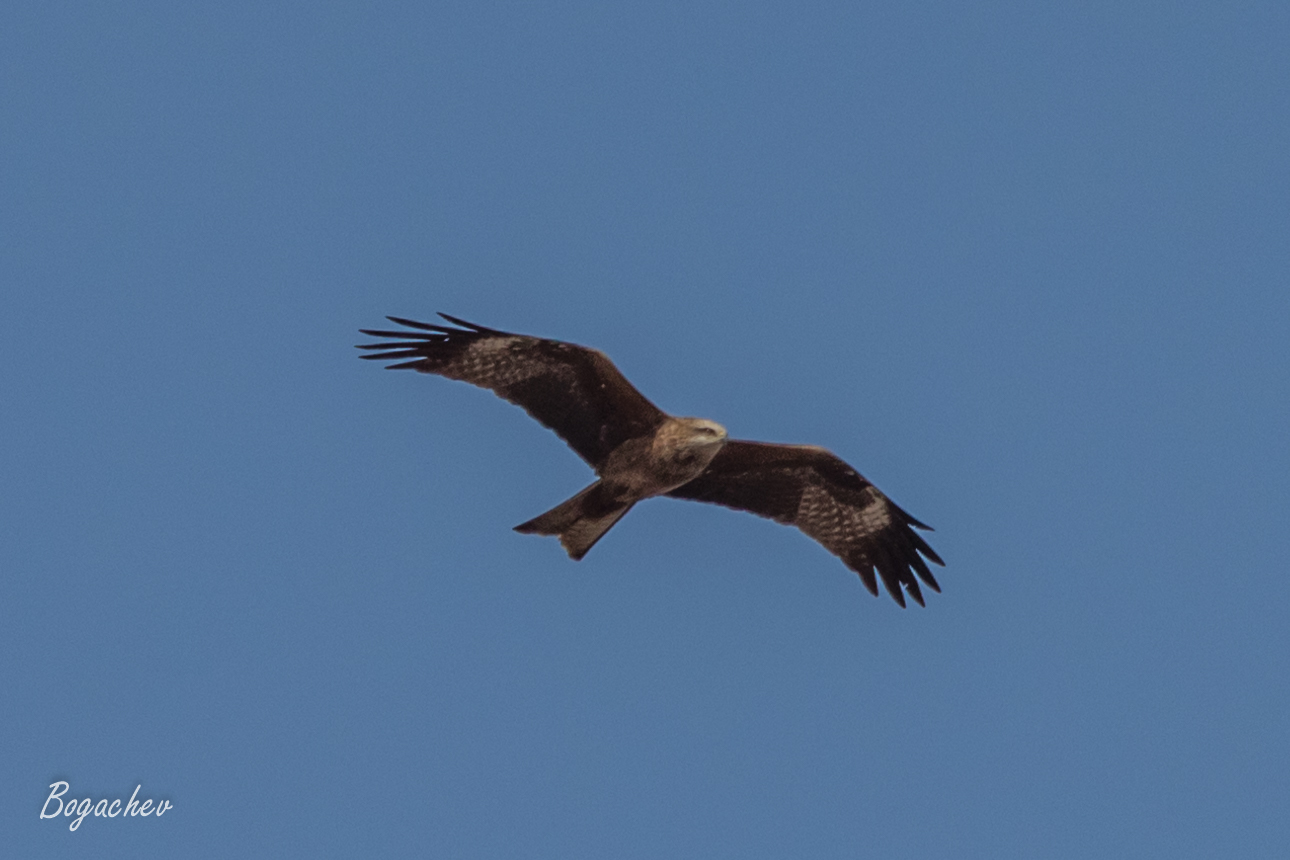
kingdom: Animalia
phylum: Chordata
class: Aves
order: Accipitriformes
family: Accipitridae
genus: Milvus
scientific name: Milvus migrans
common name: Black kite
